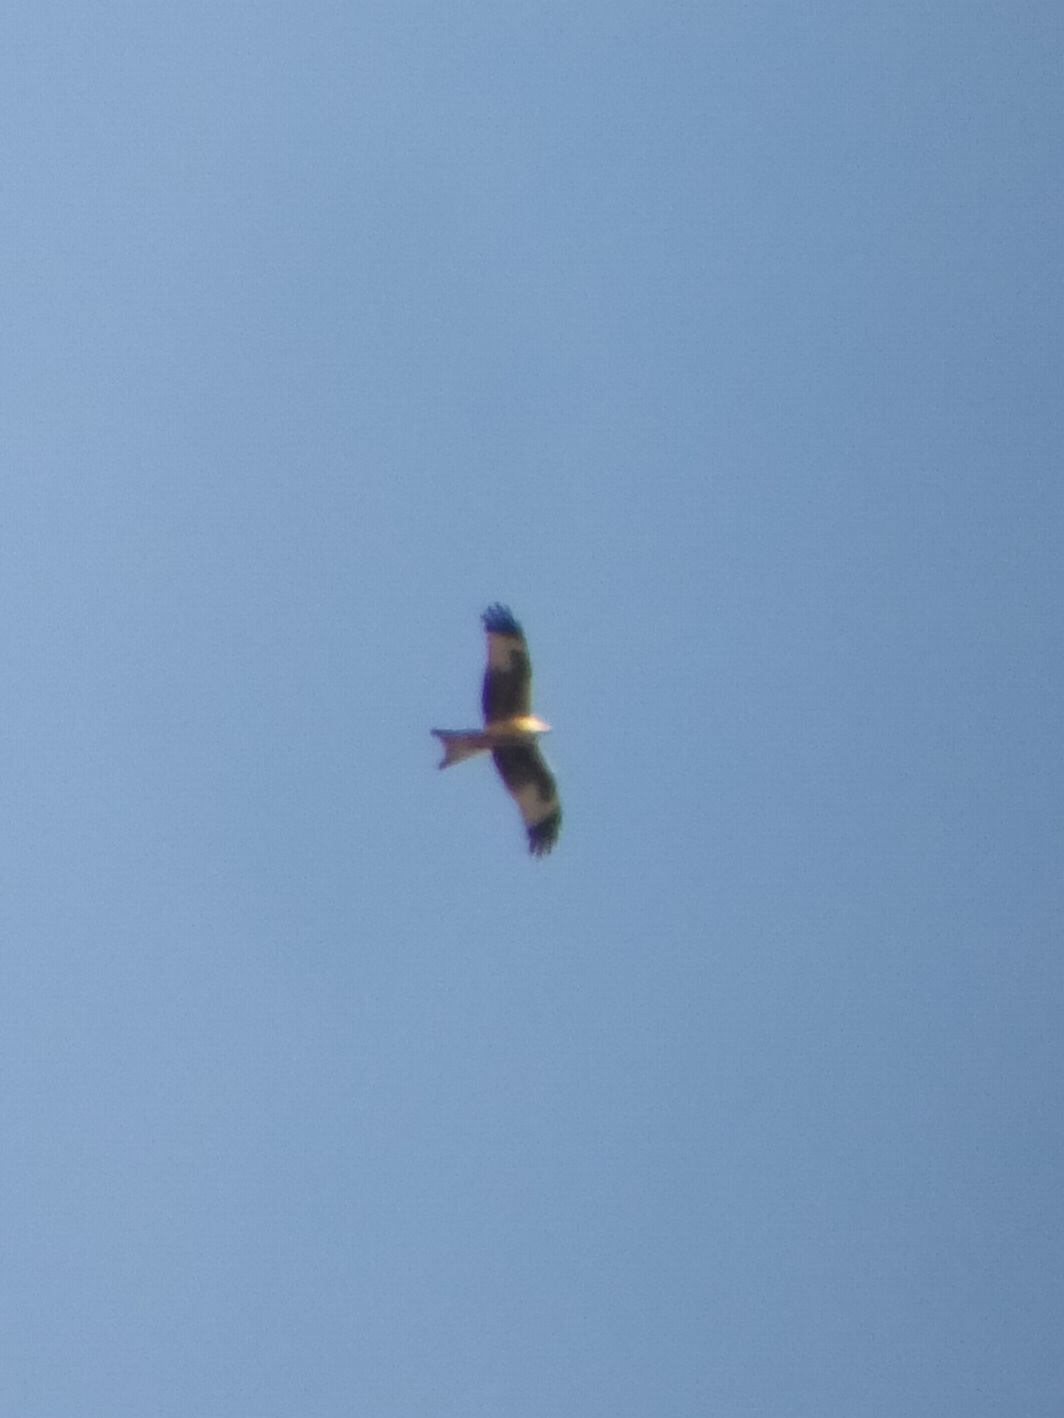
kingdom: Animalia
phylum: Chordata
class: Aves
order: Accipitriformes
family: Accipitridae
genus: Milvus
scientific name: Milvus milvus
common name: Red kite
